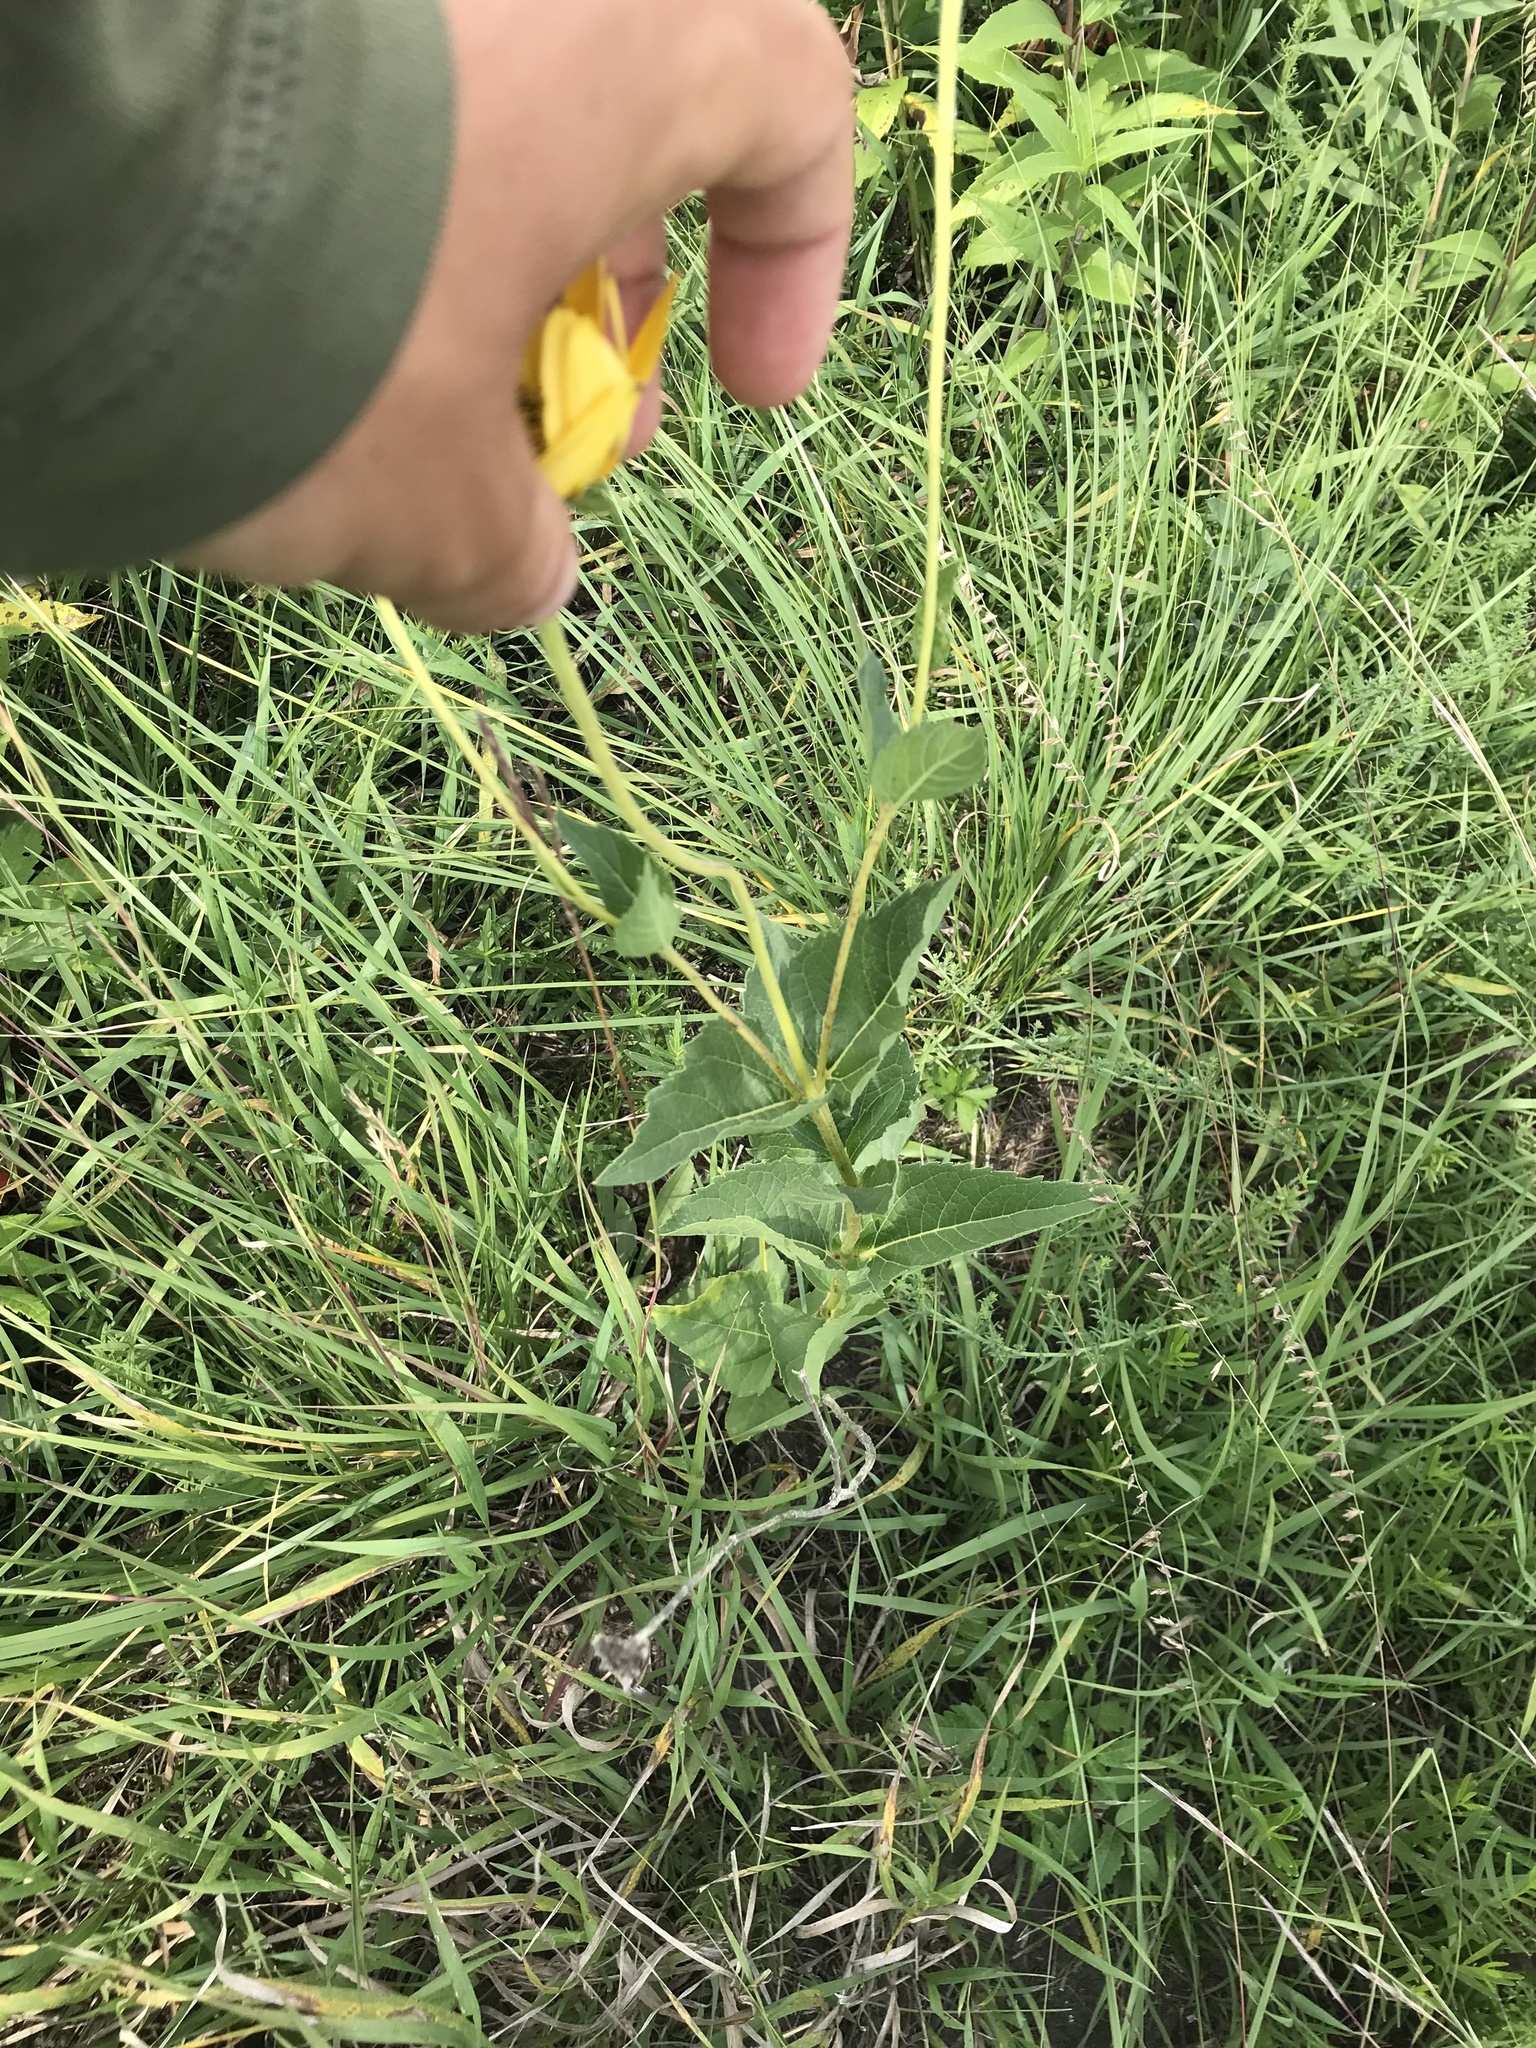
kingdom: Plantae
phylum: Tracheophyta
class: Magnoliopsida
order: Asterales
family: Asteraceae
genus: Heliopsis
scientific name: Heliopsis helianthoides
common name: False sunflower
